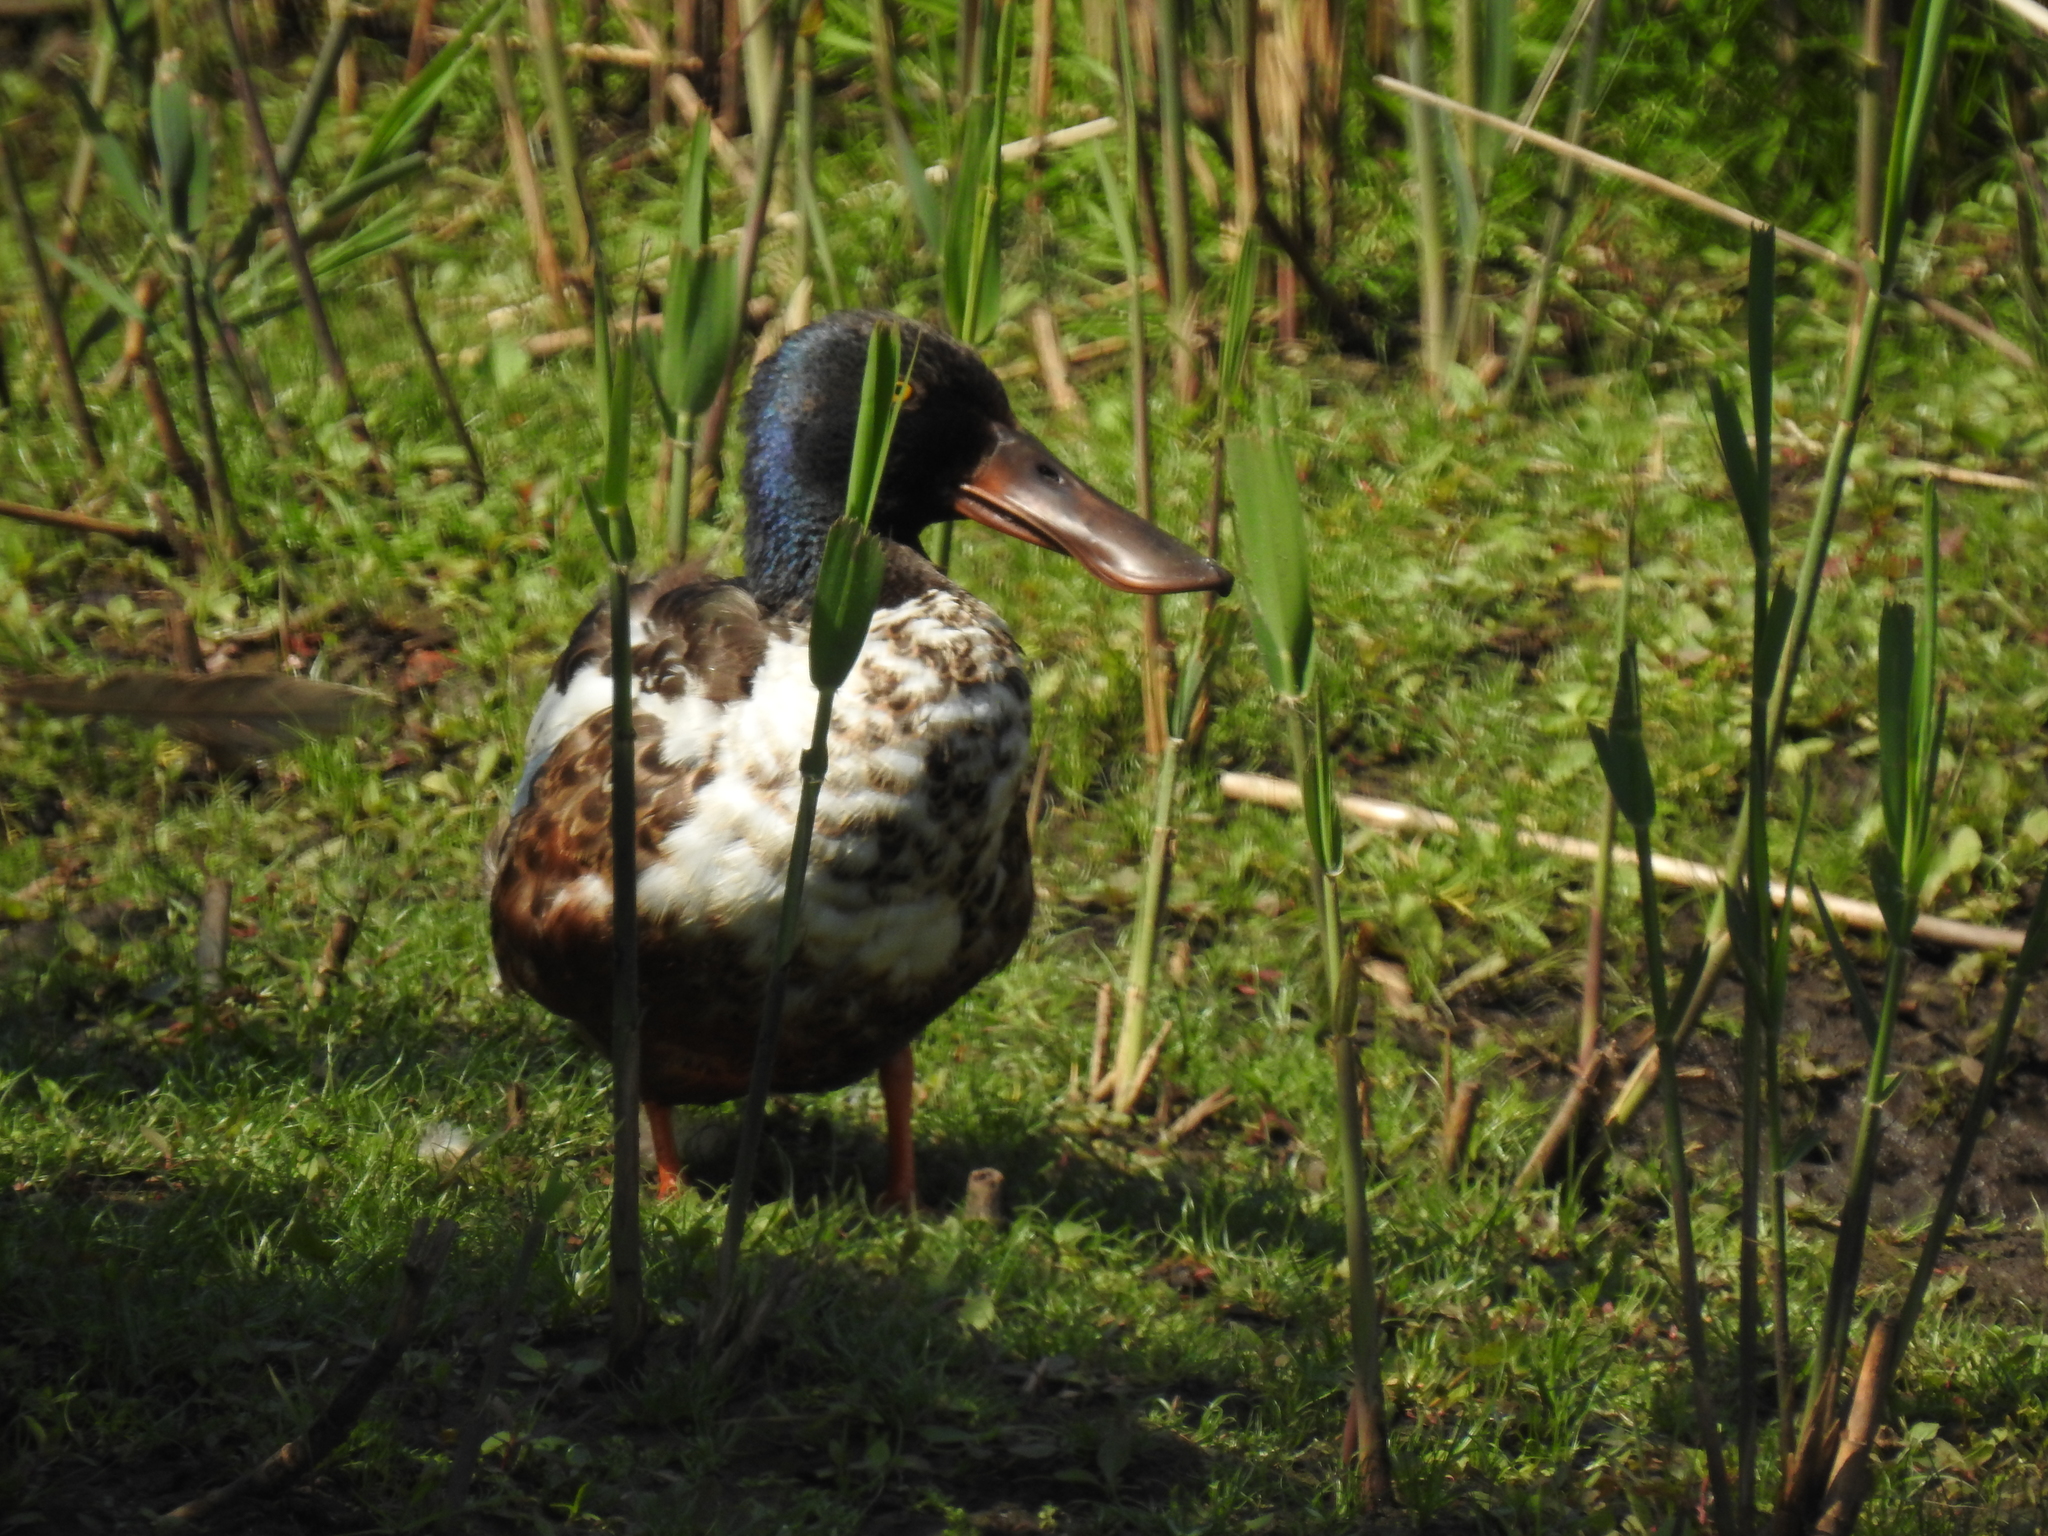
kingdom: Animalia
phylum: Chordata
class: Aves
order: Anseriformes
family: Anatidae
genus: Spatula
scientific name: Spatula clypeata
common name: Northern shoveler
